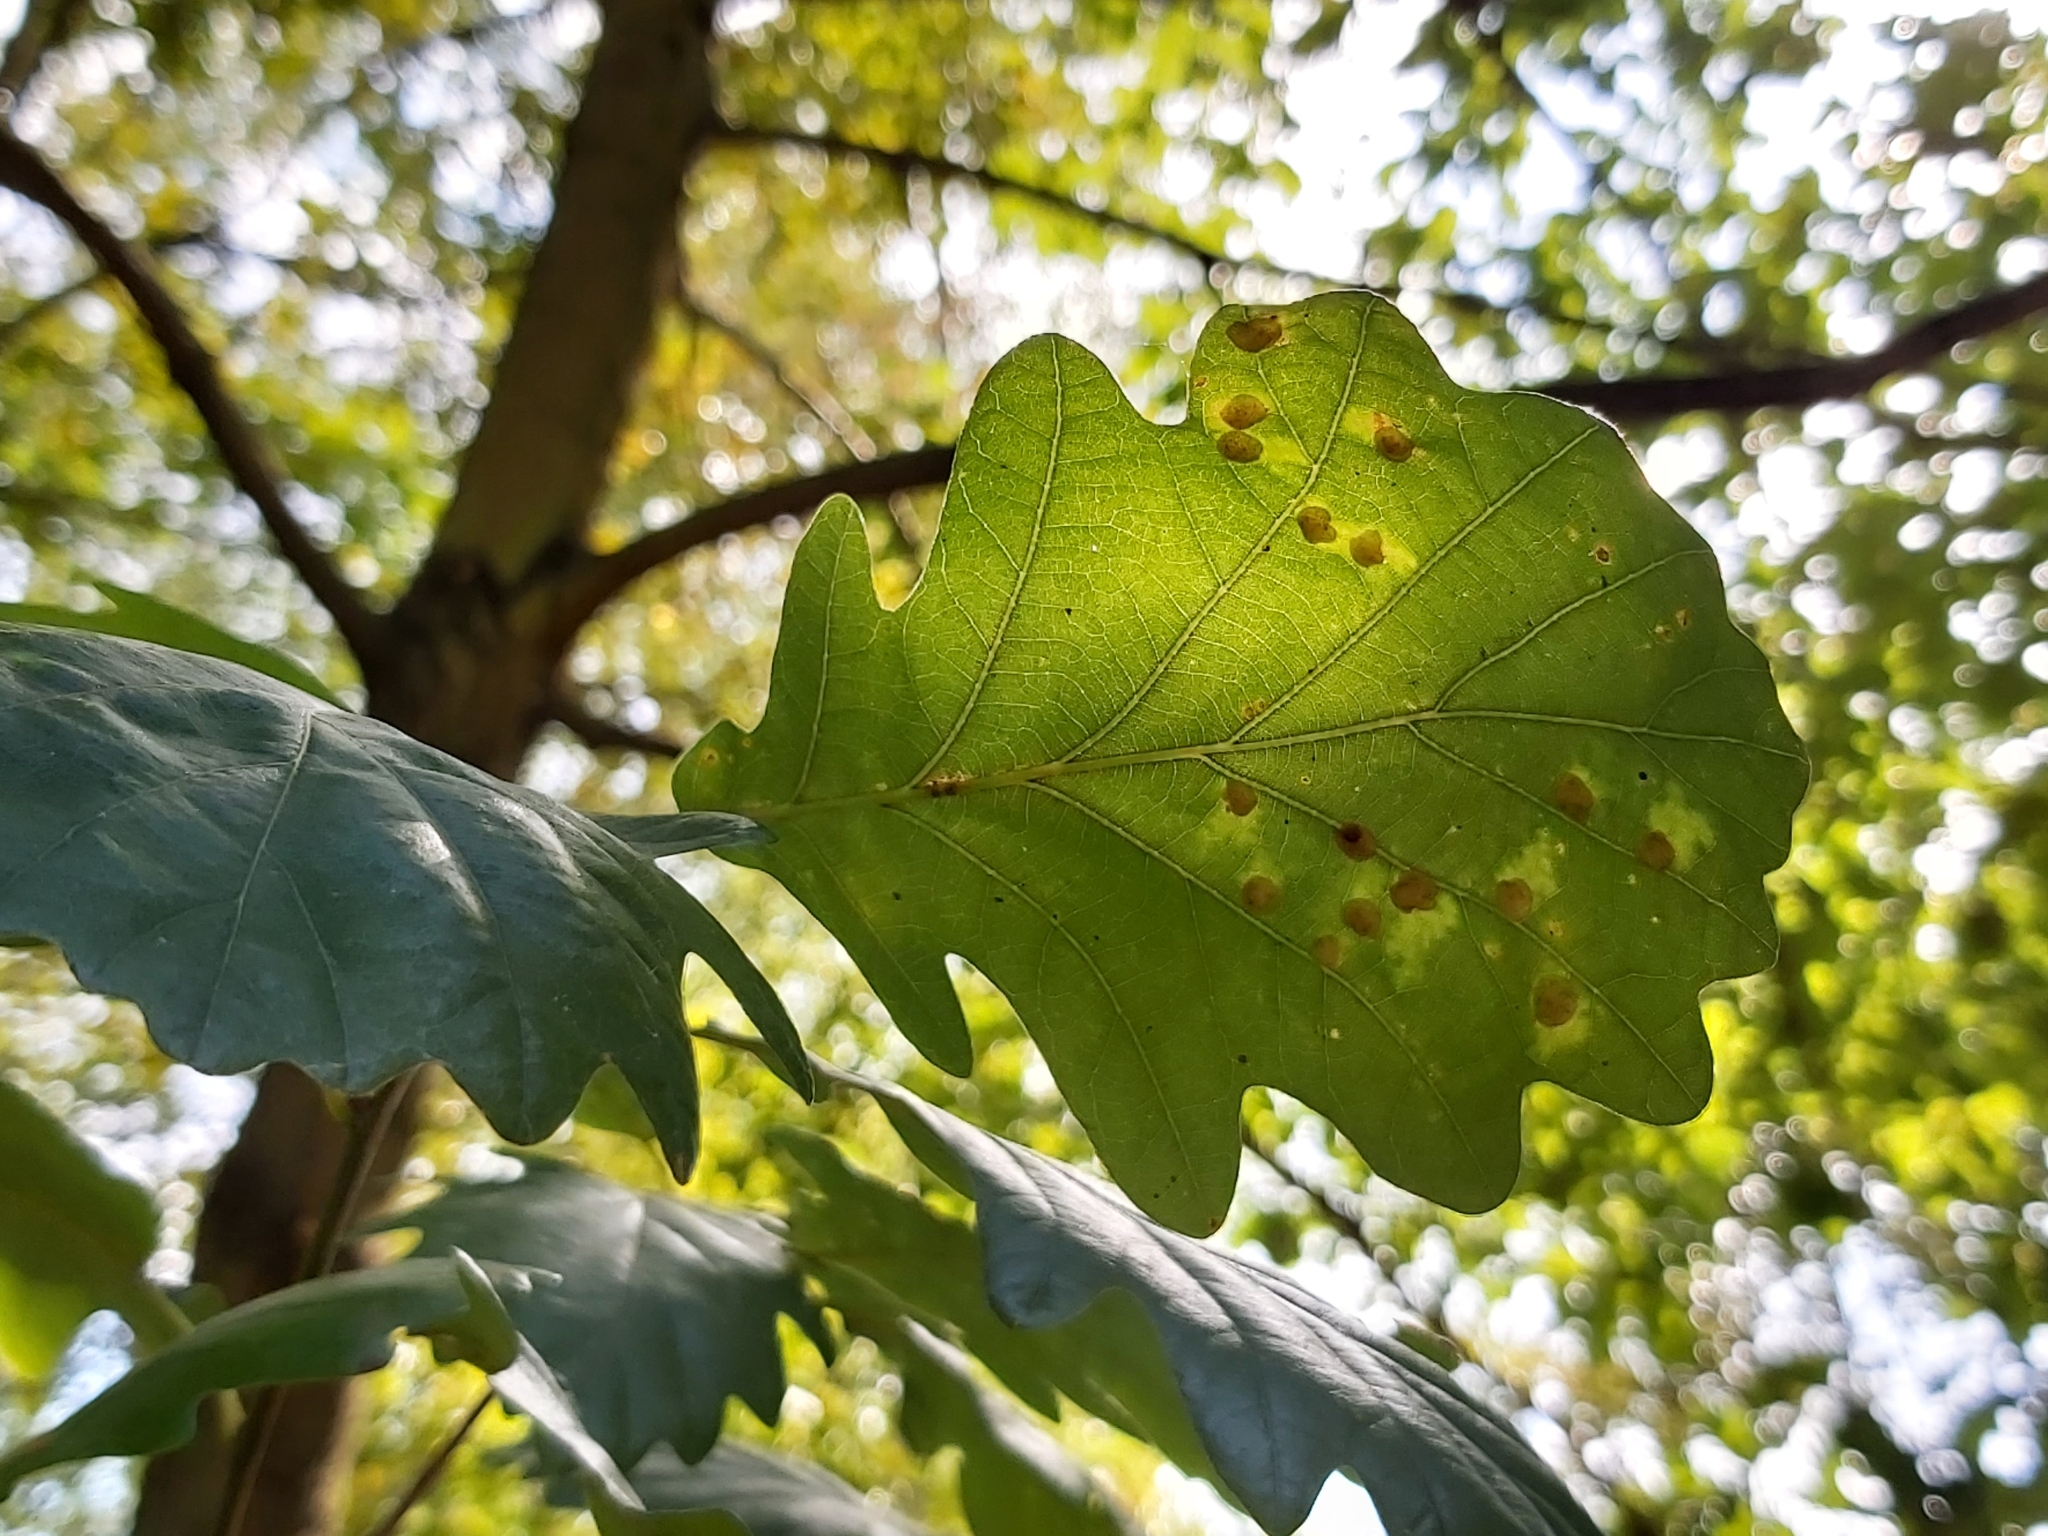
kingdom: Animalia
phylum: Arthropoda
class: Insecta
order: Hymenoptera
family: Cynipidae
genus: Neuroterus
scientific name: Neuroterus quercusbaccarum
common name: Common spangle gall
